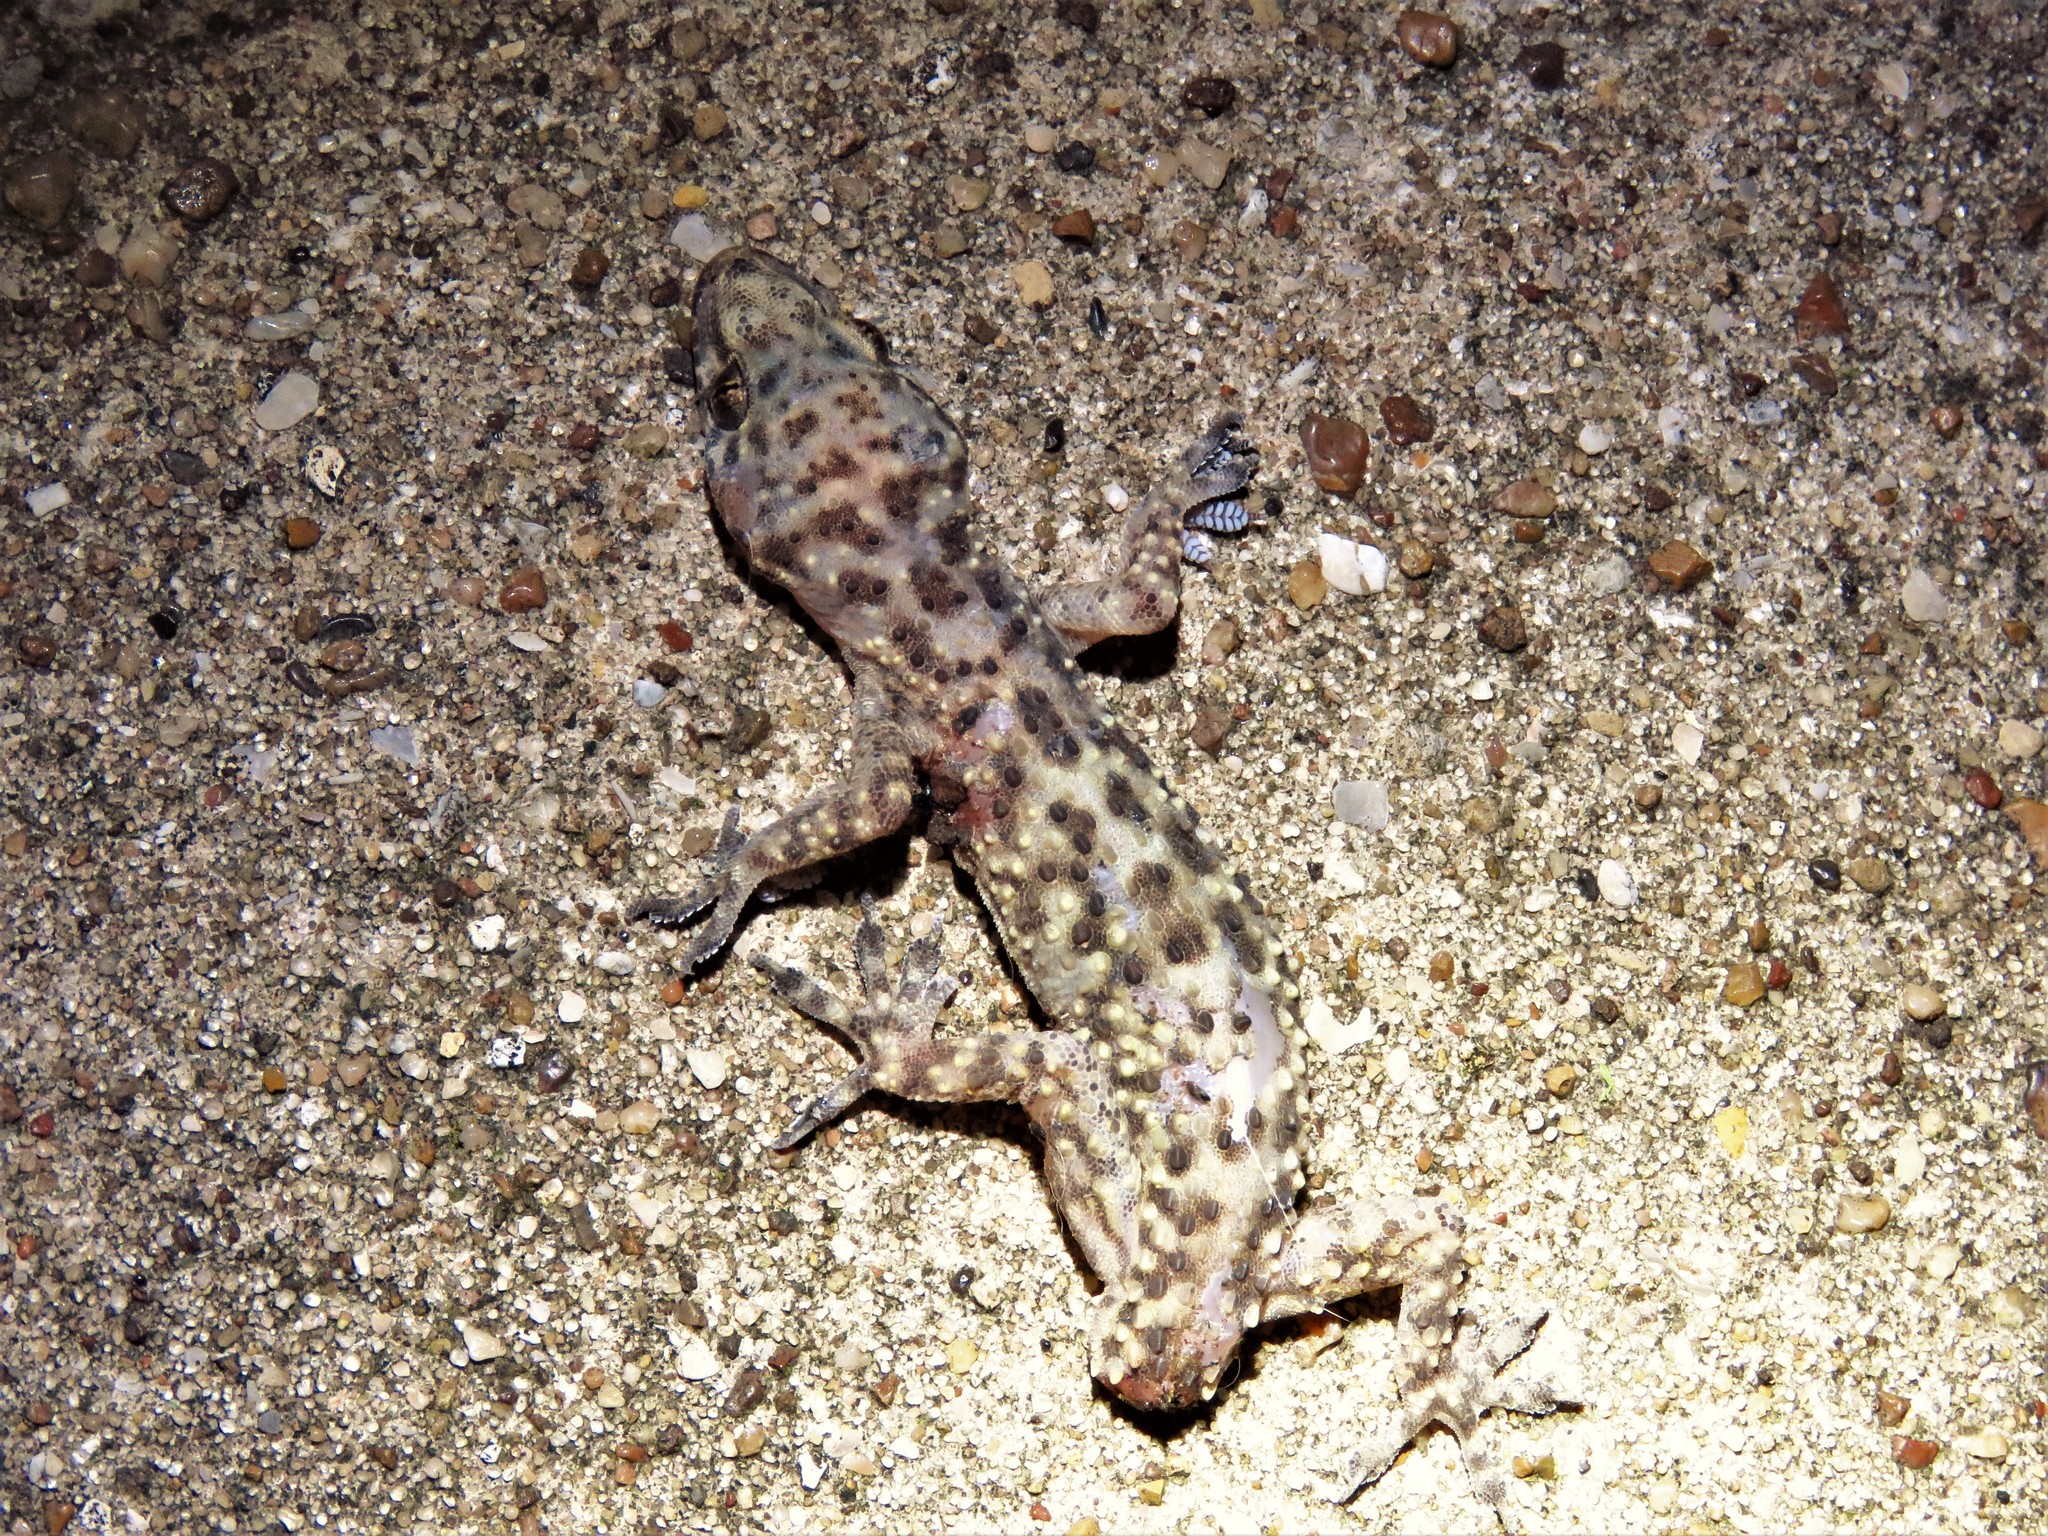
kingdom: Animalia
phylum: Chordata
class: Squamata
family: Gekkonidae
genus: Hemidactylus
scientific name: Hemidactylus turcicus
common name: Turkish gecko
